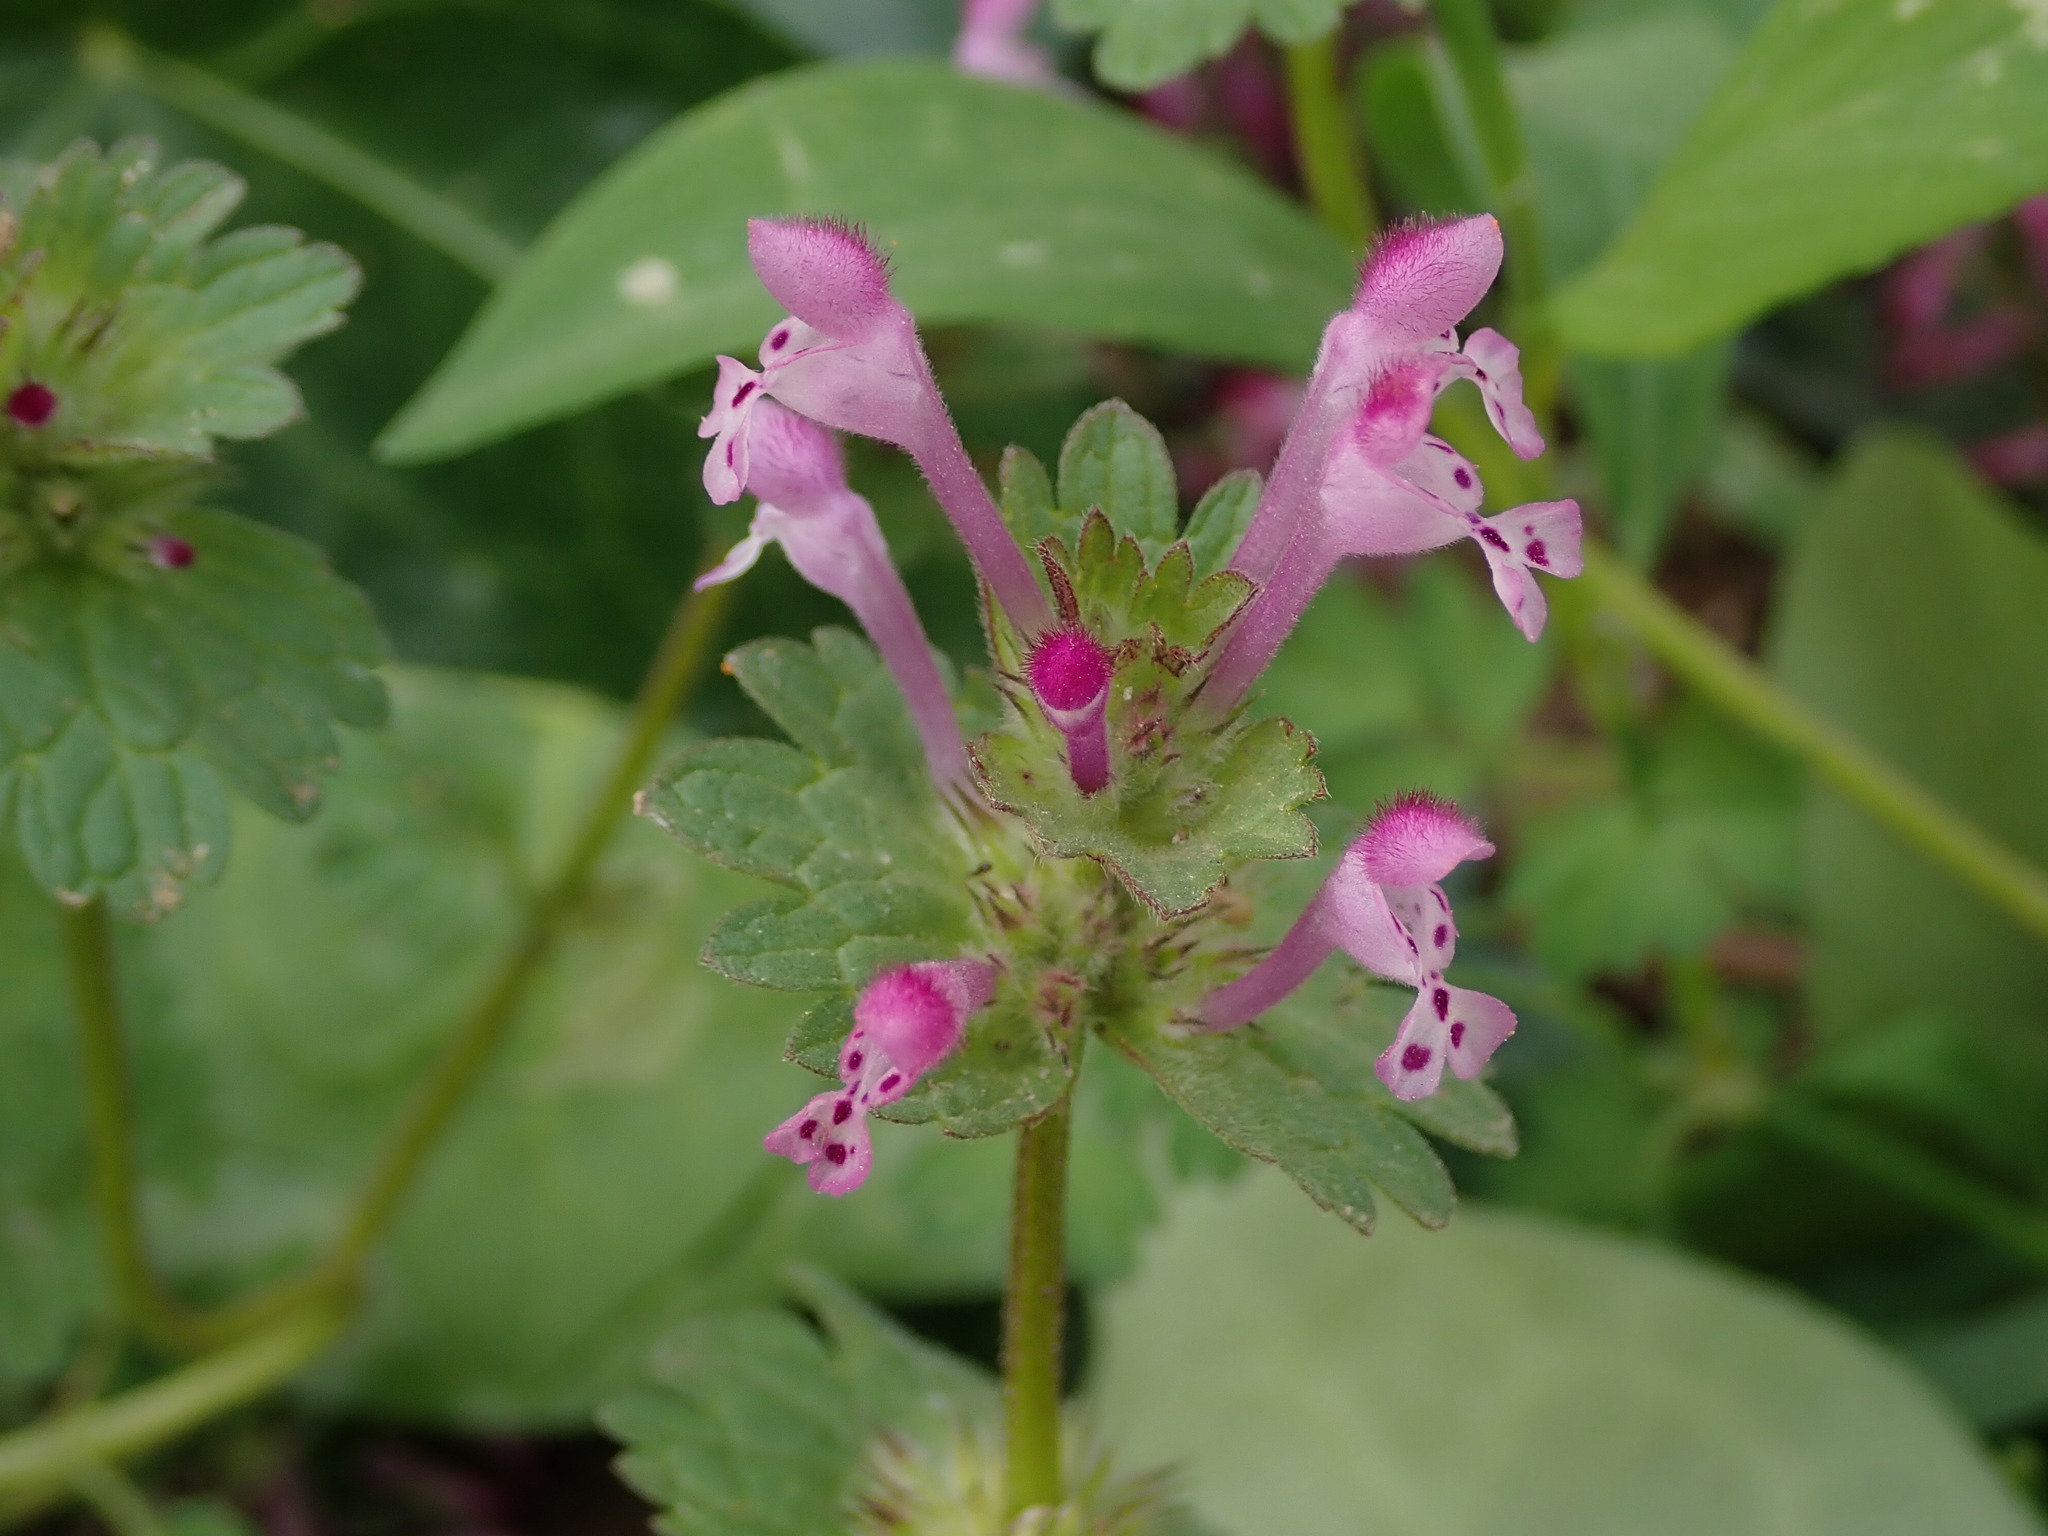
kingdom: Plantae
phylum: Tracheophyta
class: Magnoliopsida
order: Lamiales
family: Lamiaceae
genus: Lamium
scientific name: Lamium amplexicaule
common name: Henbit dead-nettle
